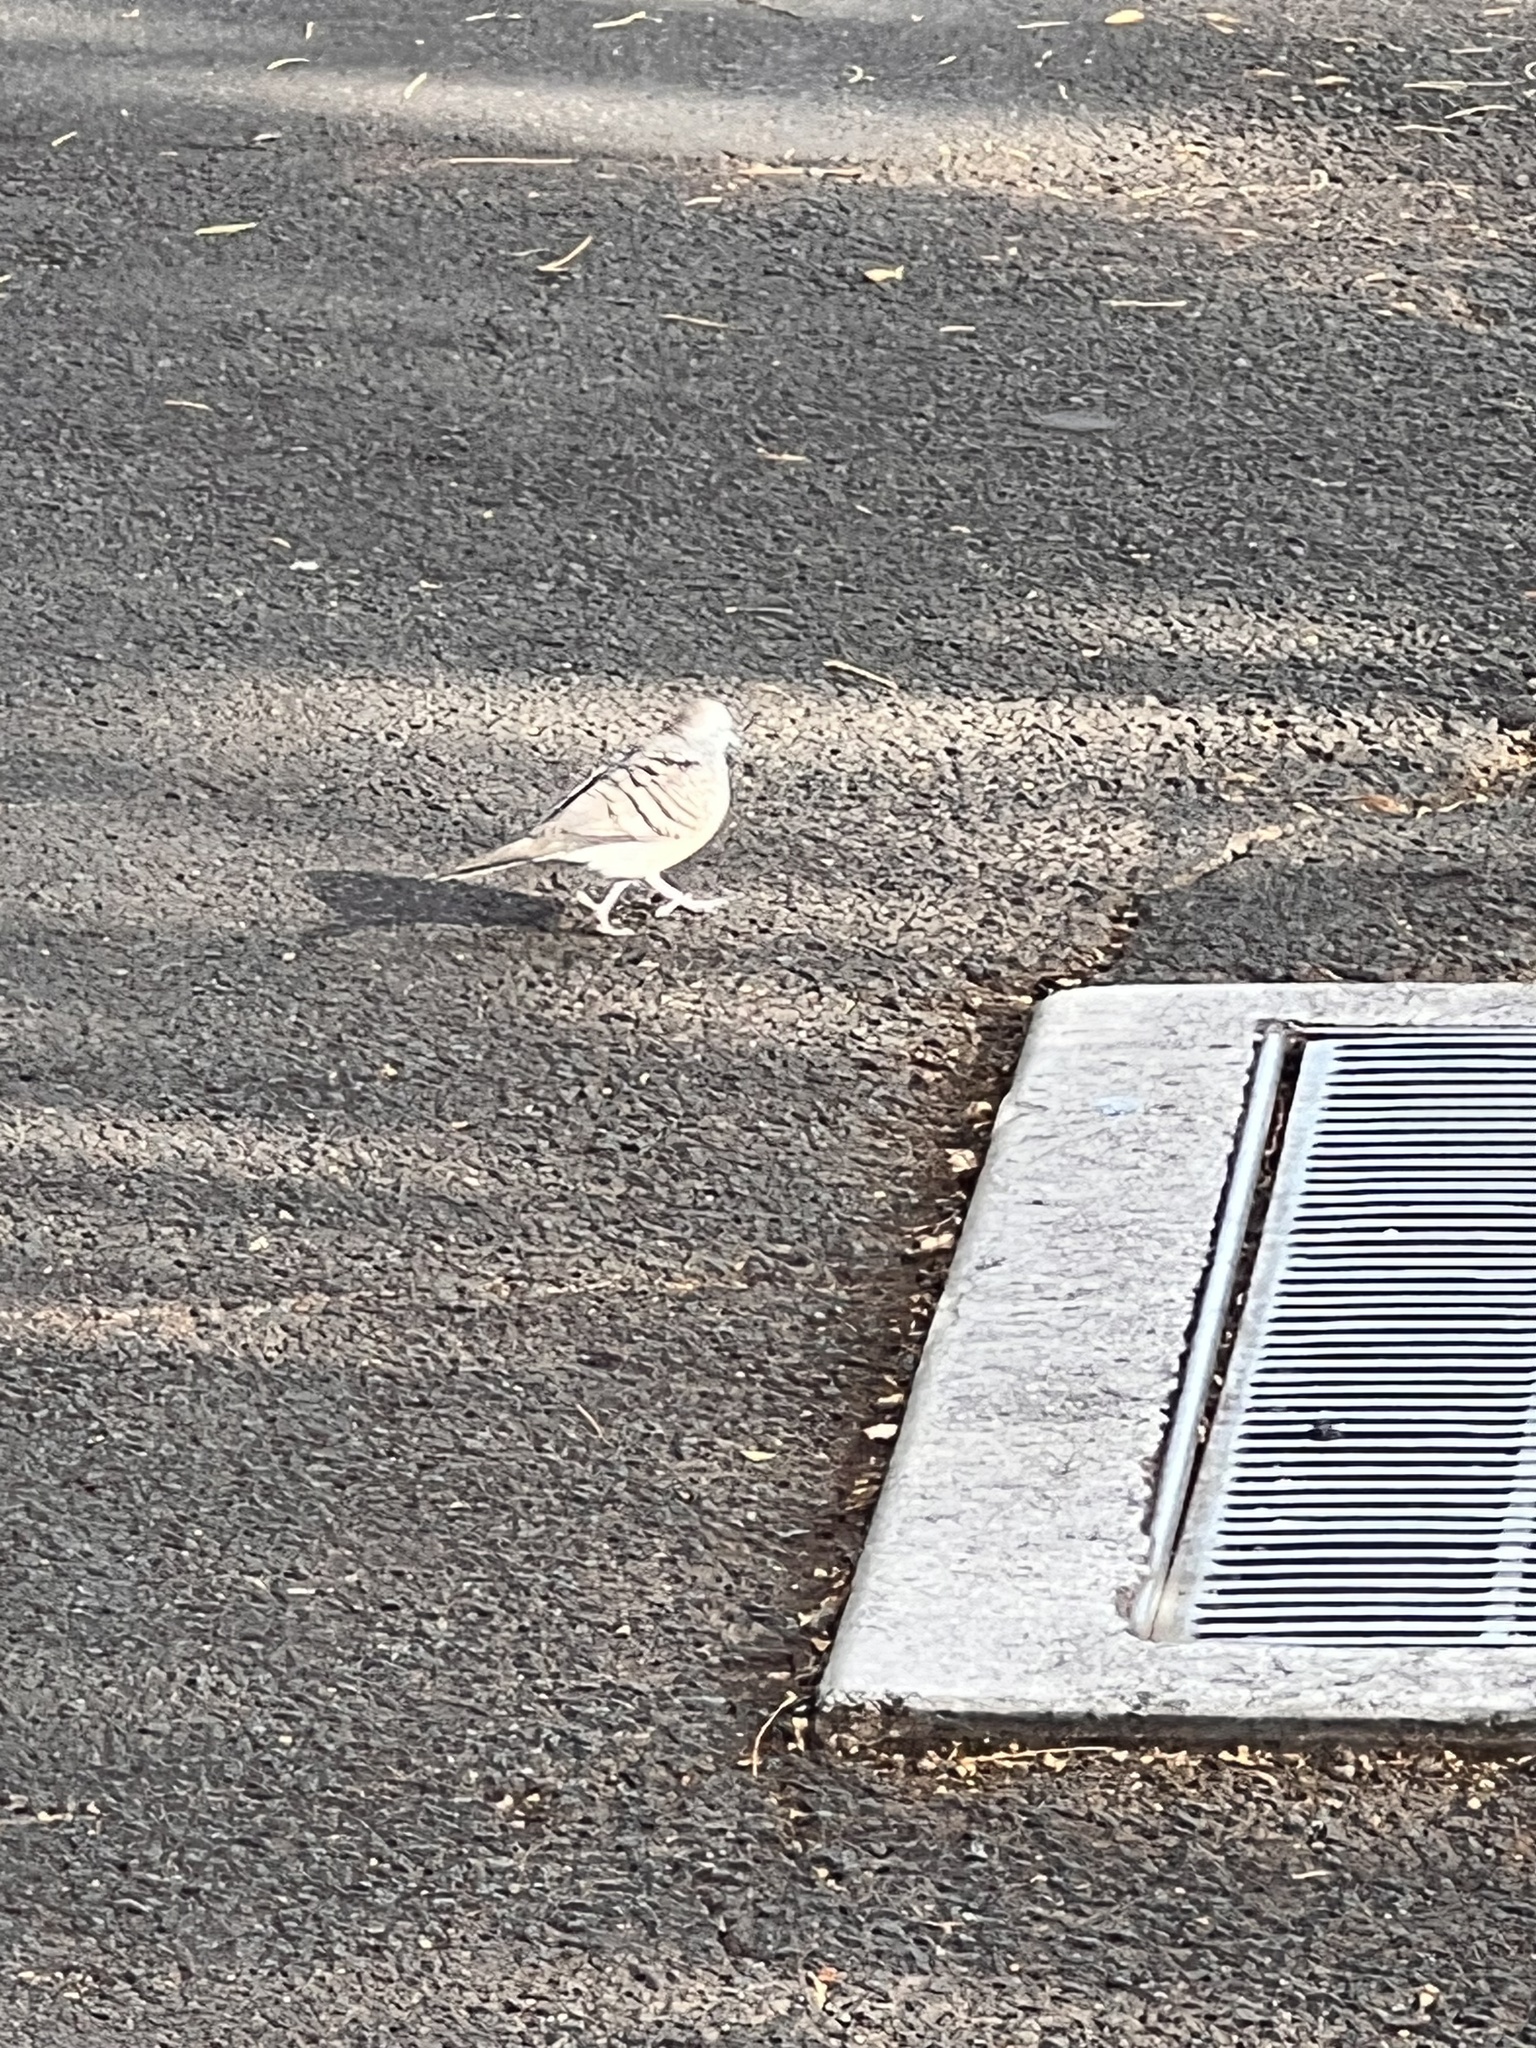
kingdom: Animalia
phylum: Chordata
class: Aves
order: Columbiformes
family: Columbidae
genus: Geopelia
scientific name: Geopelia striata
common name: Zebra dove
